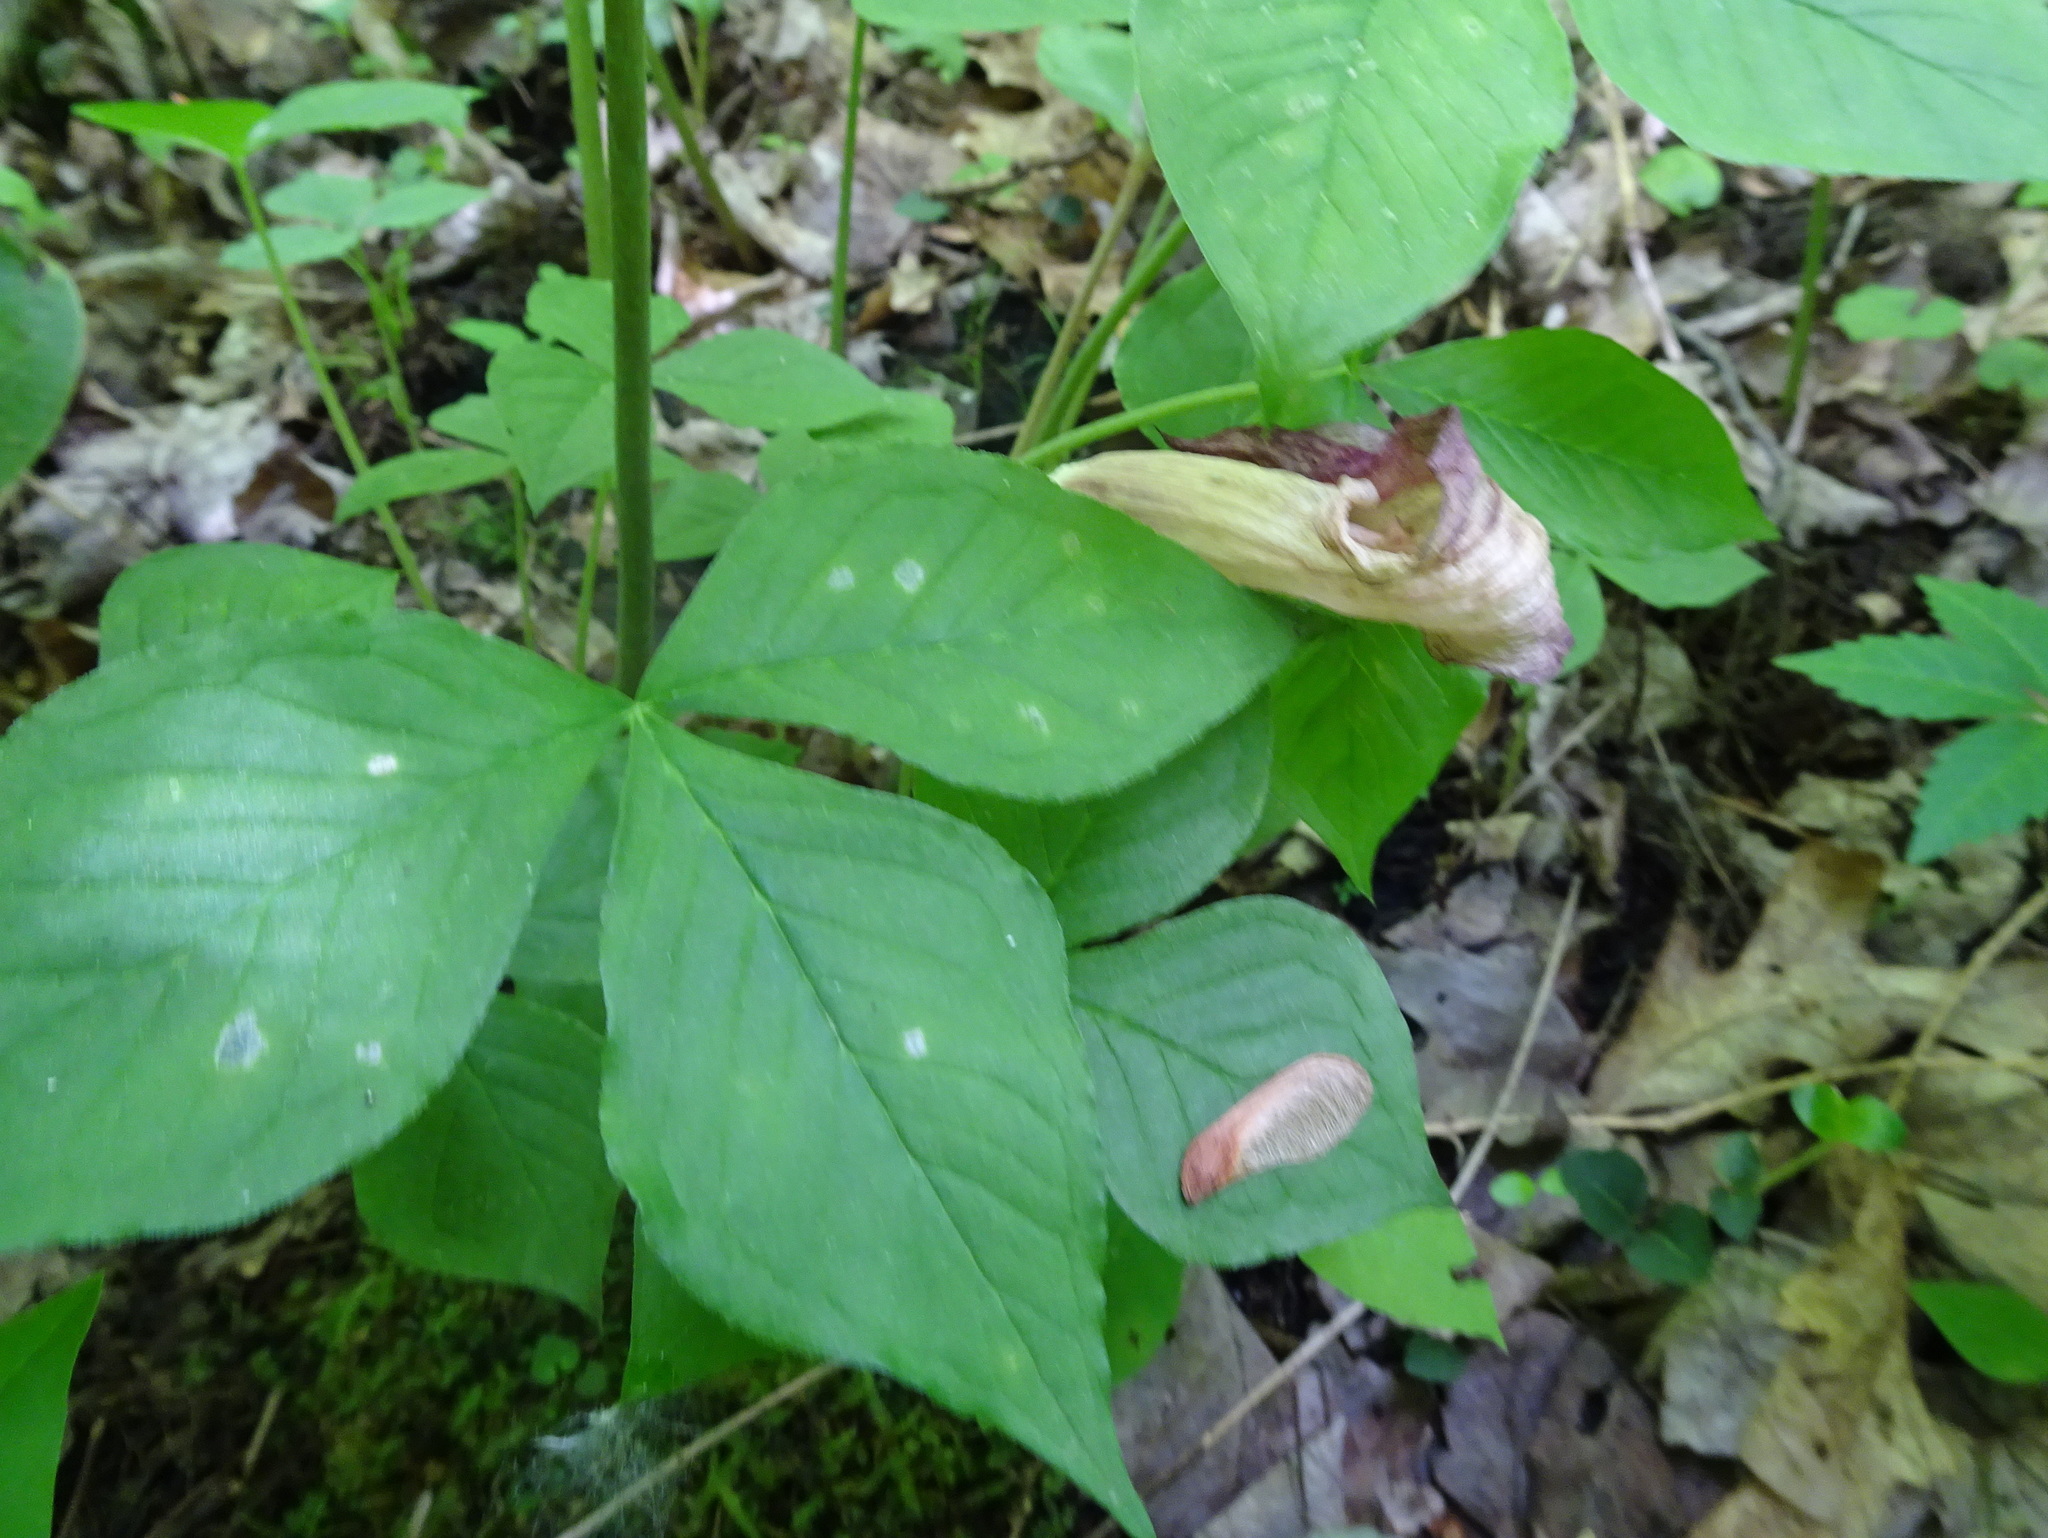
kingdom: Plantae
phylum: Tracheophyta
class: Liliopsida
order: Alismatales
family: Araceae
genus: Arisaema
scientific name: Arisaema triphyllum
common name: Jack-in-the-pulpit
